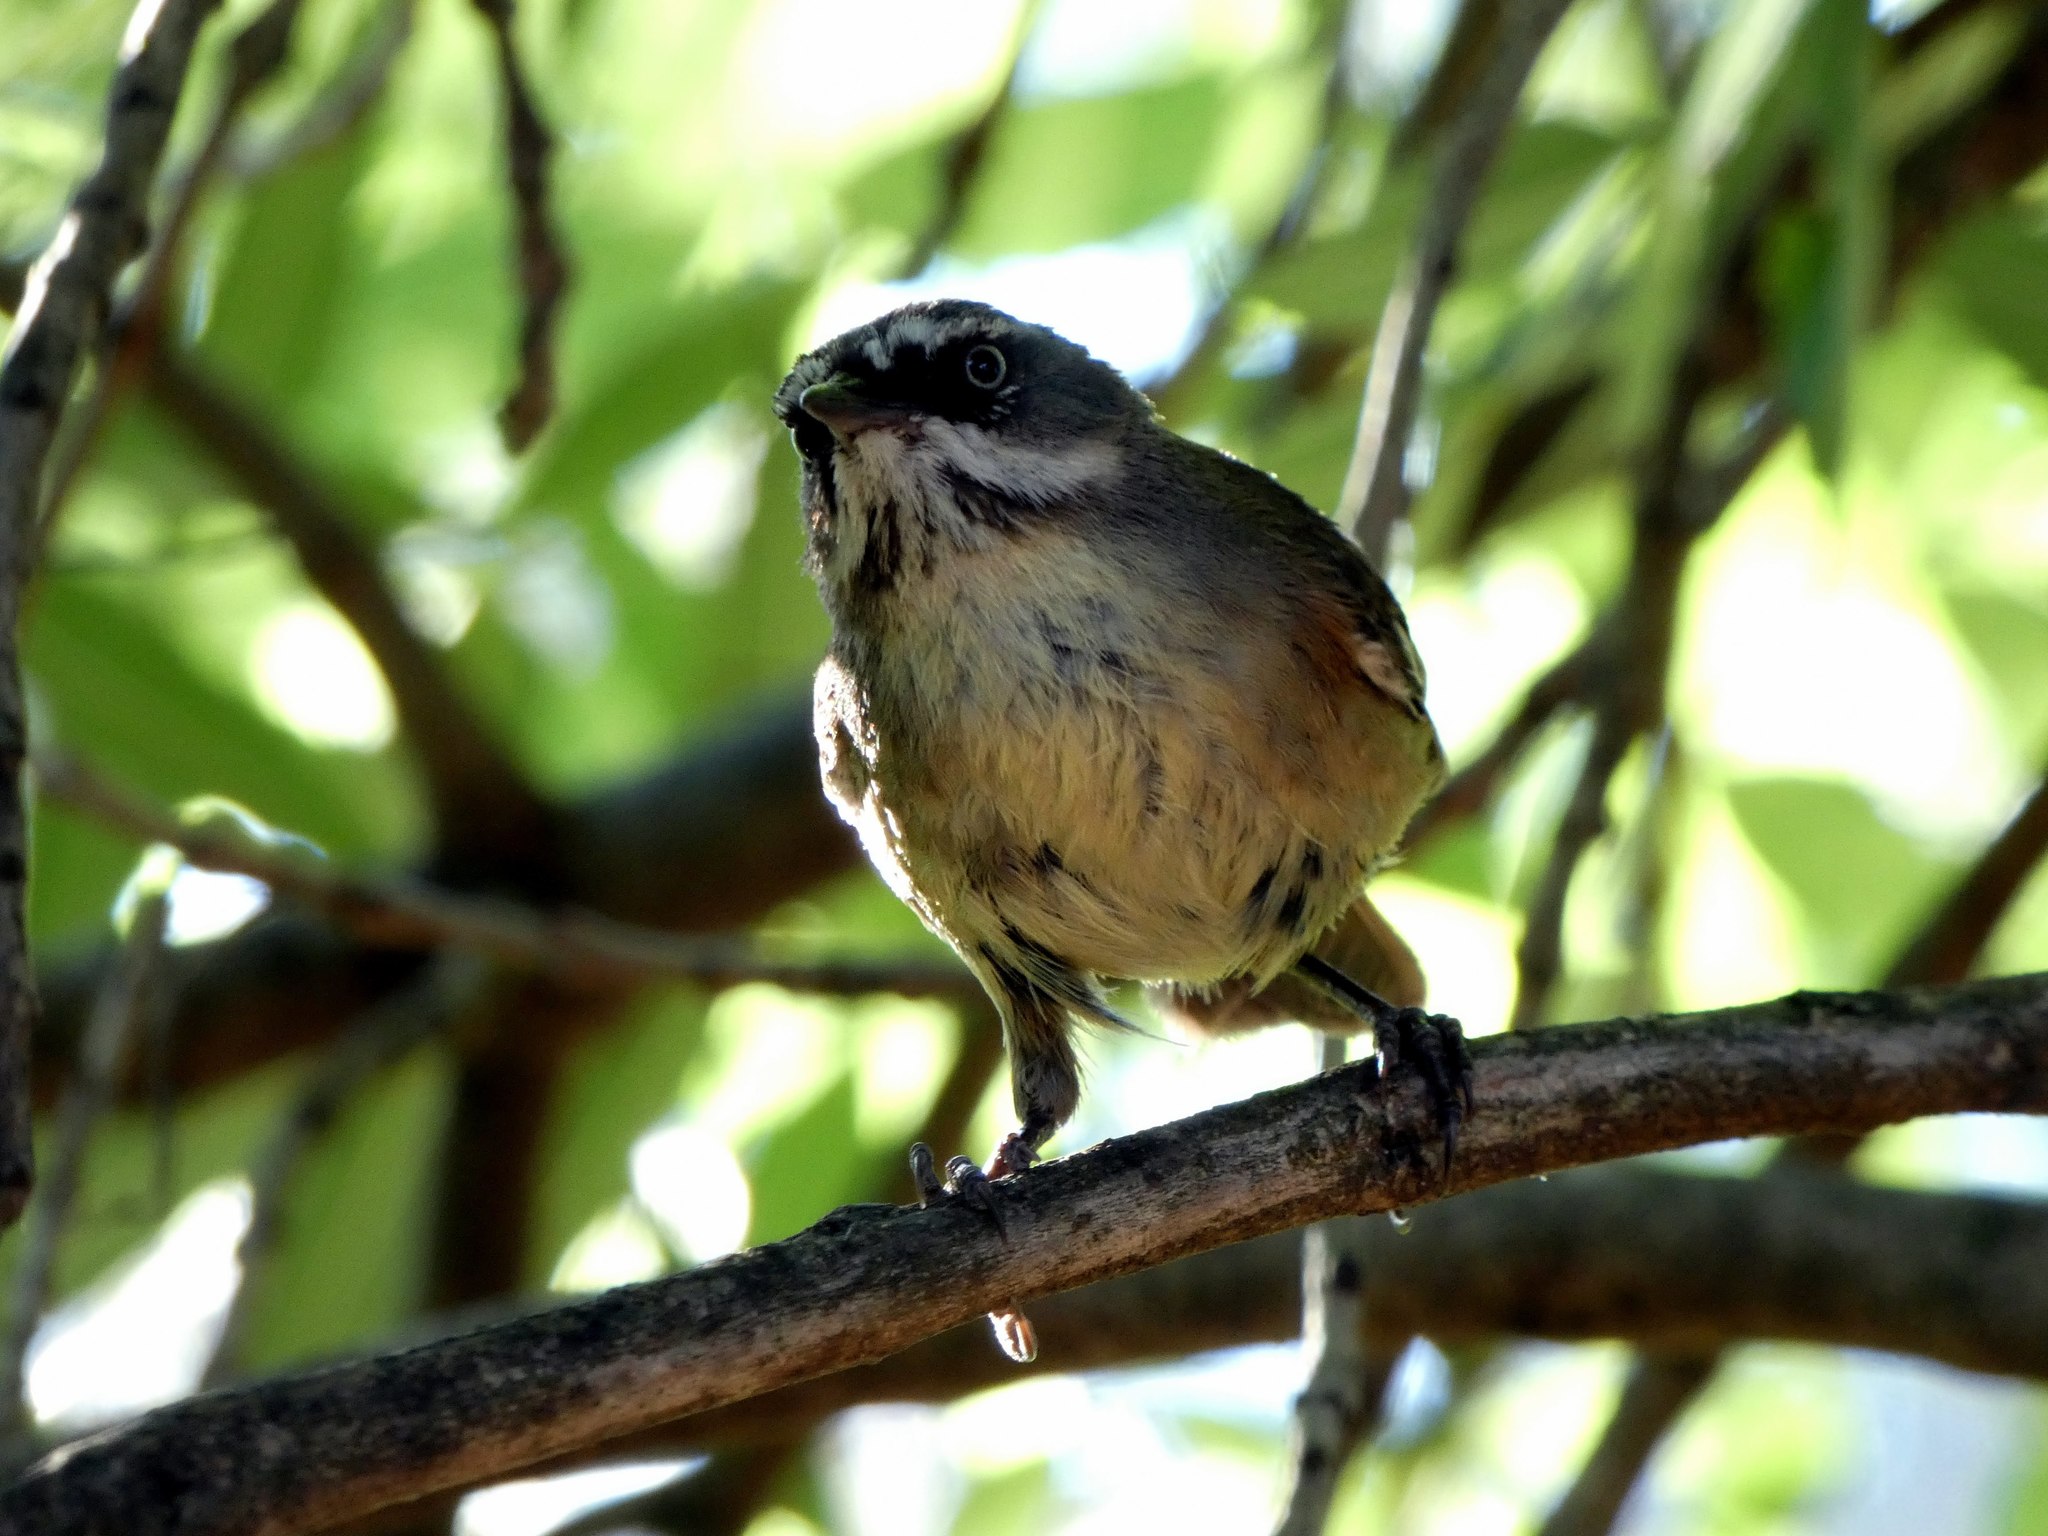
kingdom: Animalia
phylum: Chordata
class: Aves
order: Passeriformes
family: Acanthizidae
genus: Sericornis
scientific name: Sericornis frontalis
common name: White-browed scrubwren
